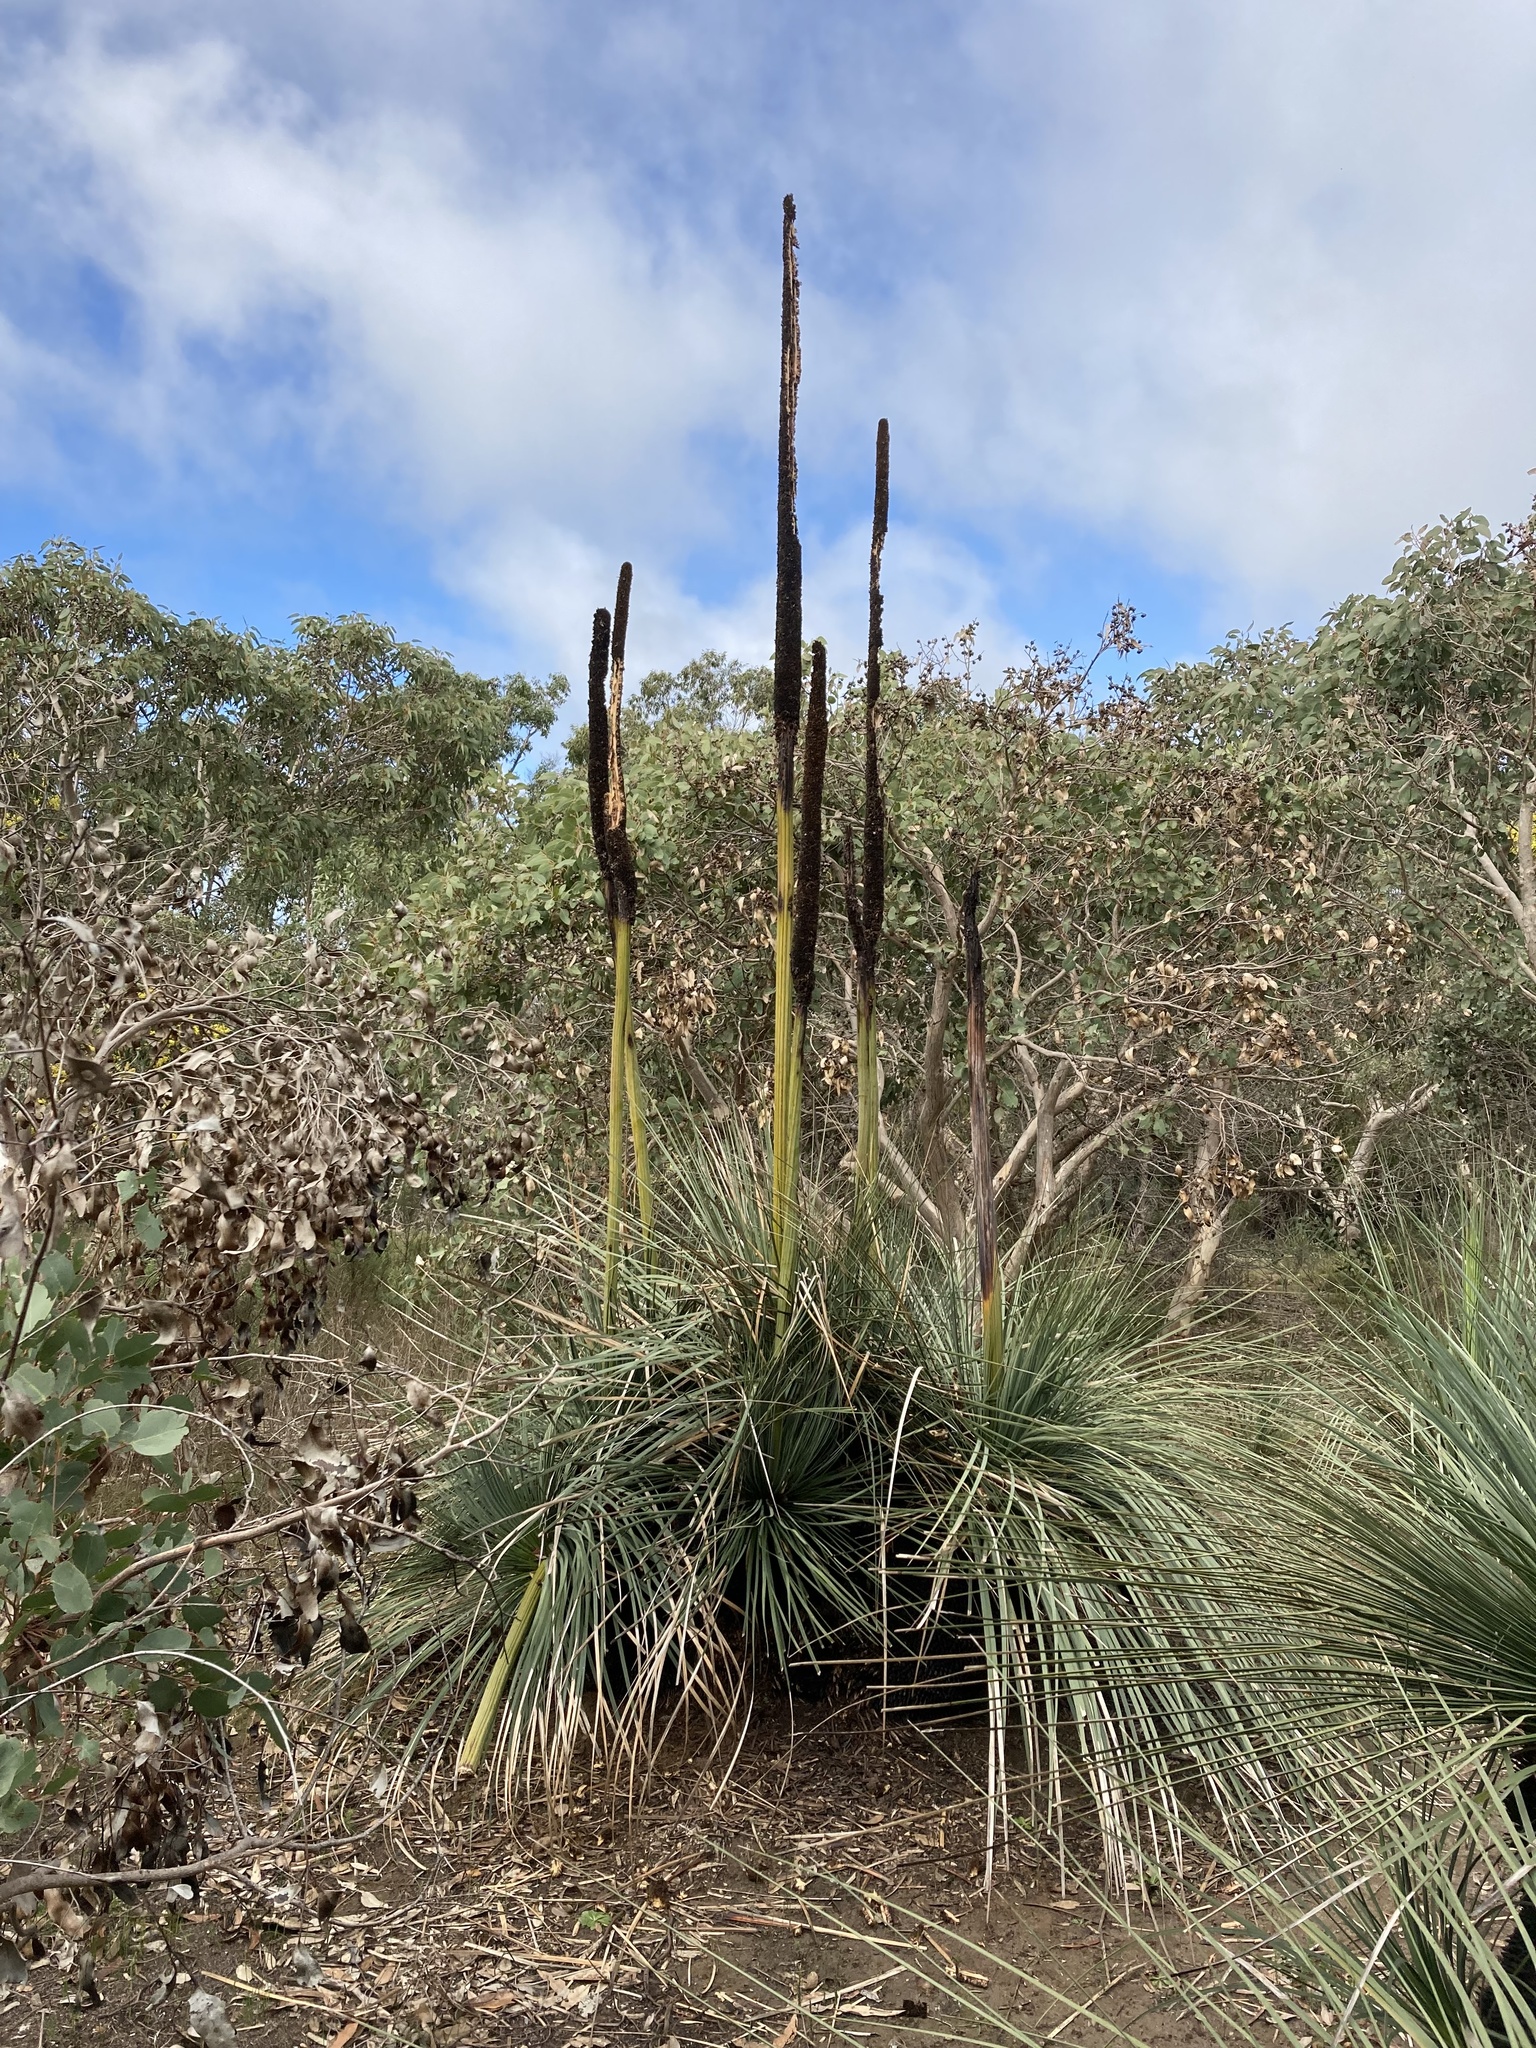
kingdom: Plantae
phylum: Tracheophyta
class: Liliopsida
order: Asparagales
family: Asphodelaceae
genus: Xanthorrhoea
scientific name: Xanthorrhoea semiplana
